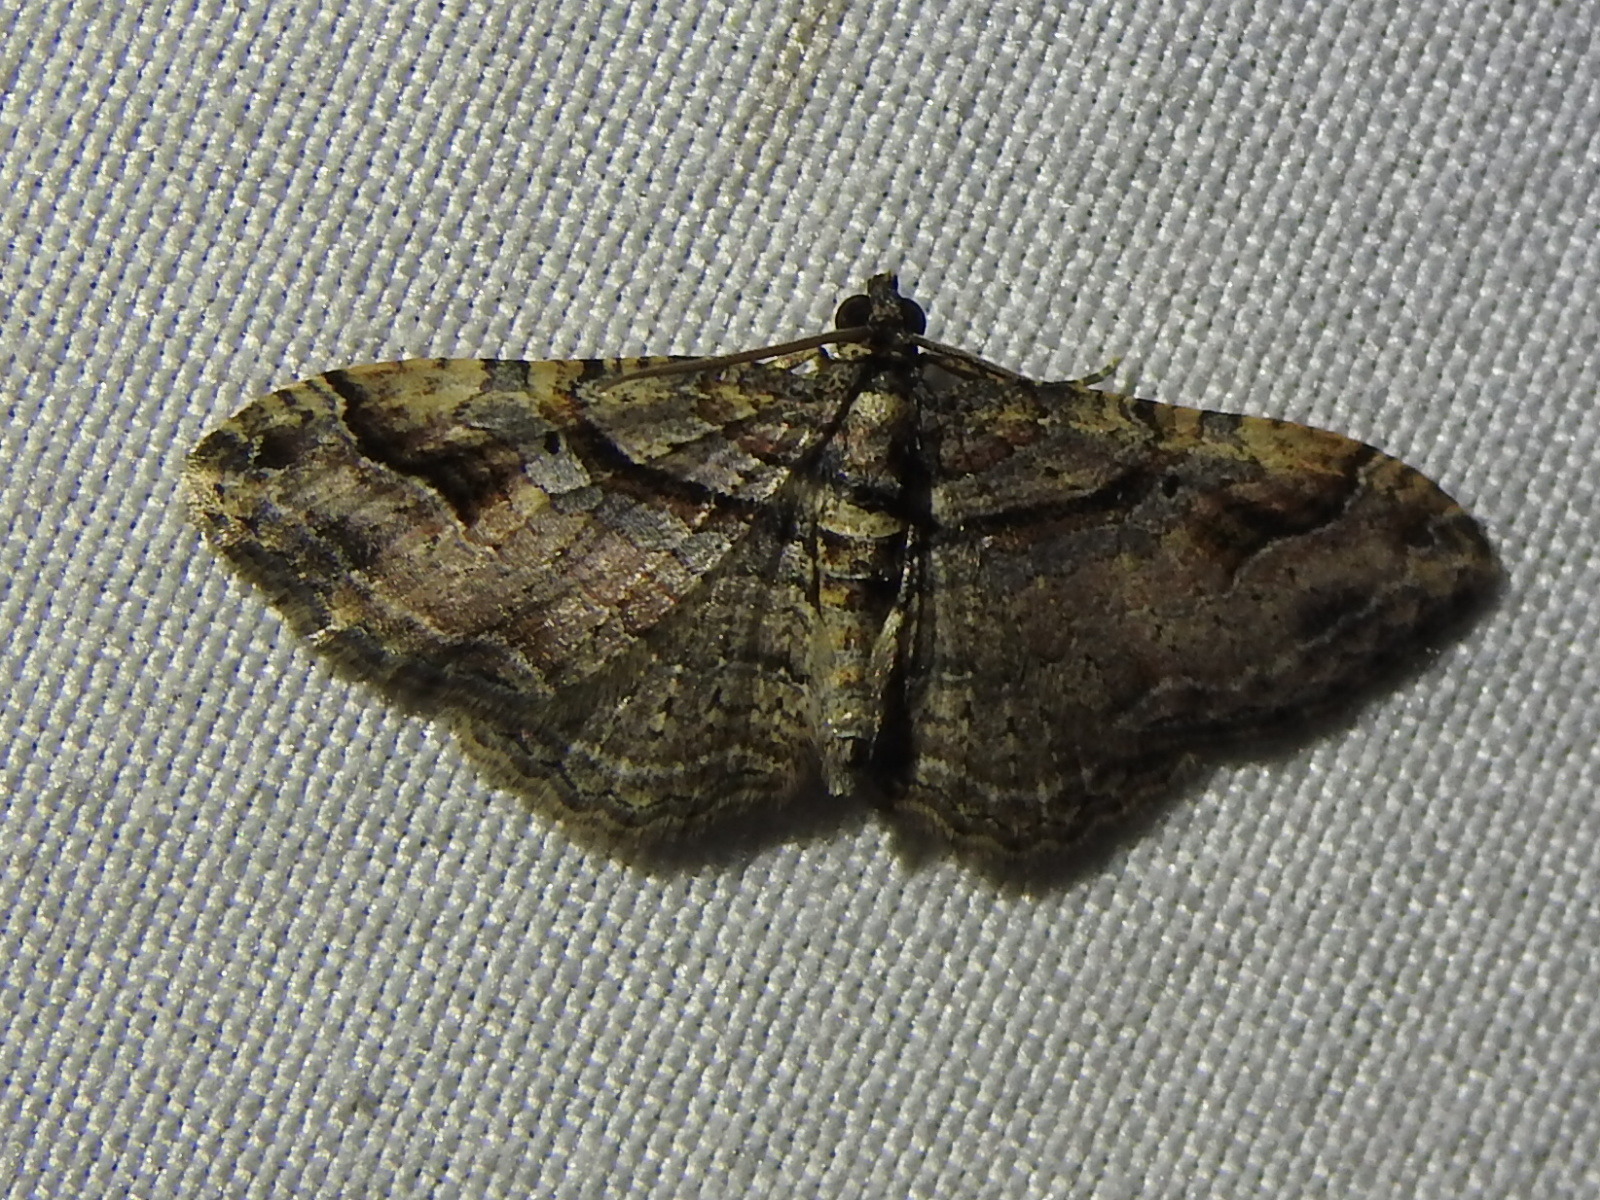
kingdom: Animalia
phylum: Arthropoda
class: Insecta
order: Lepidoptera
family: Geometridae
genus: Costaconvexa
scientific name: Costaconvexa centrostrigaria
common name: Bent-line carpet
